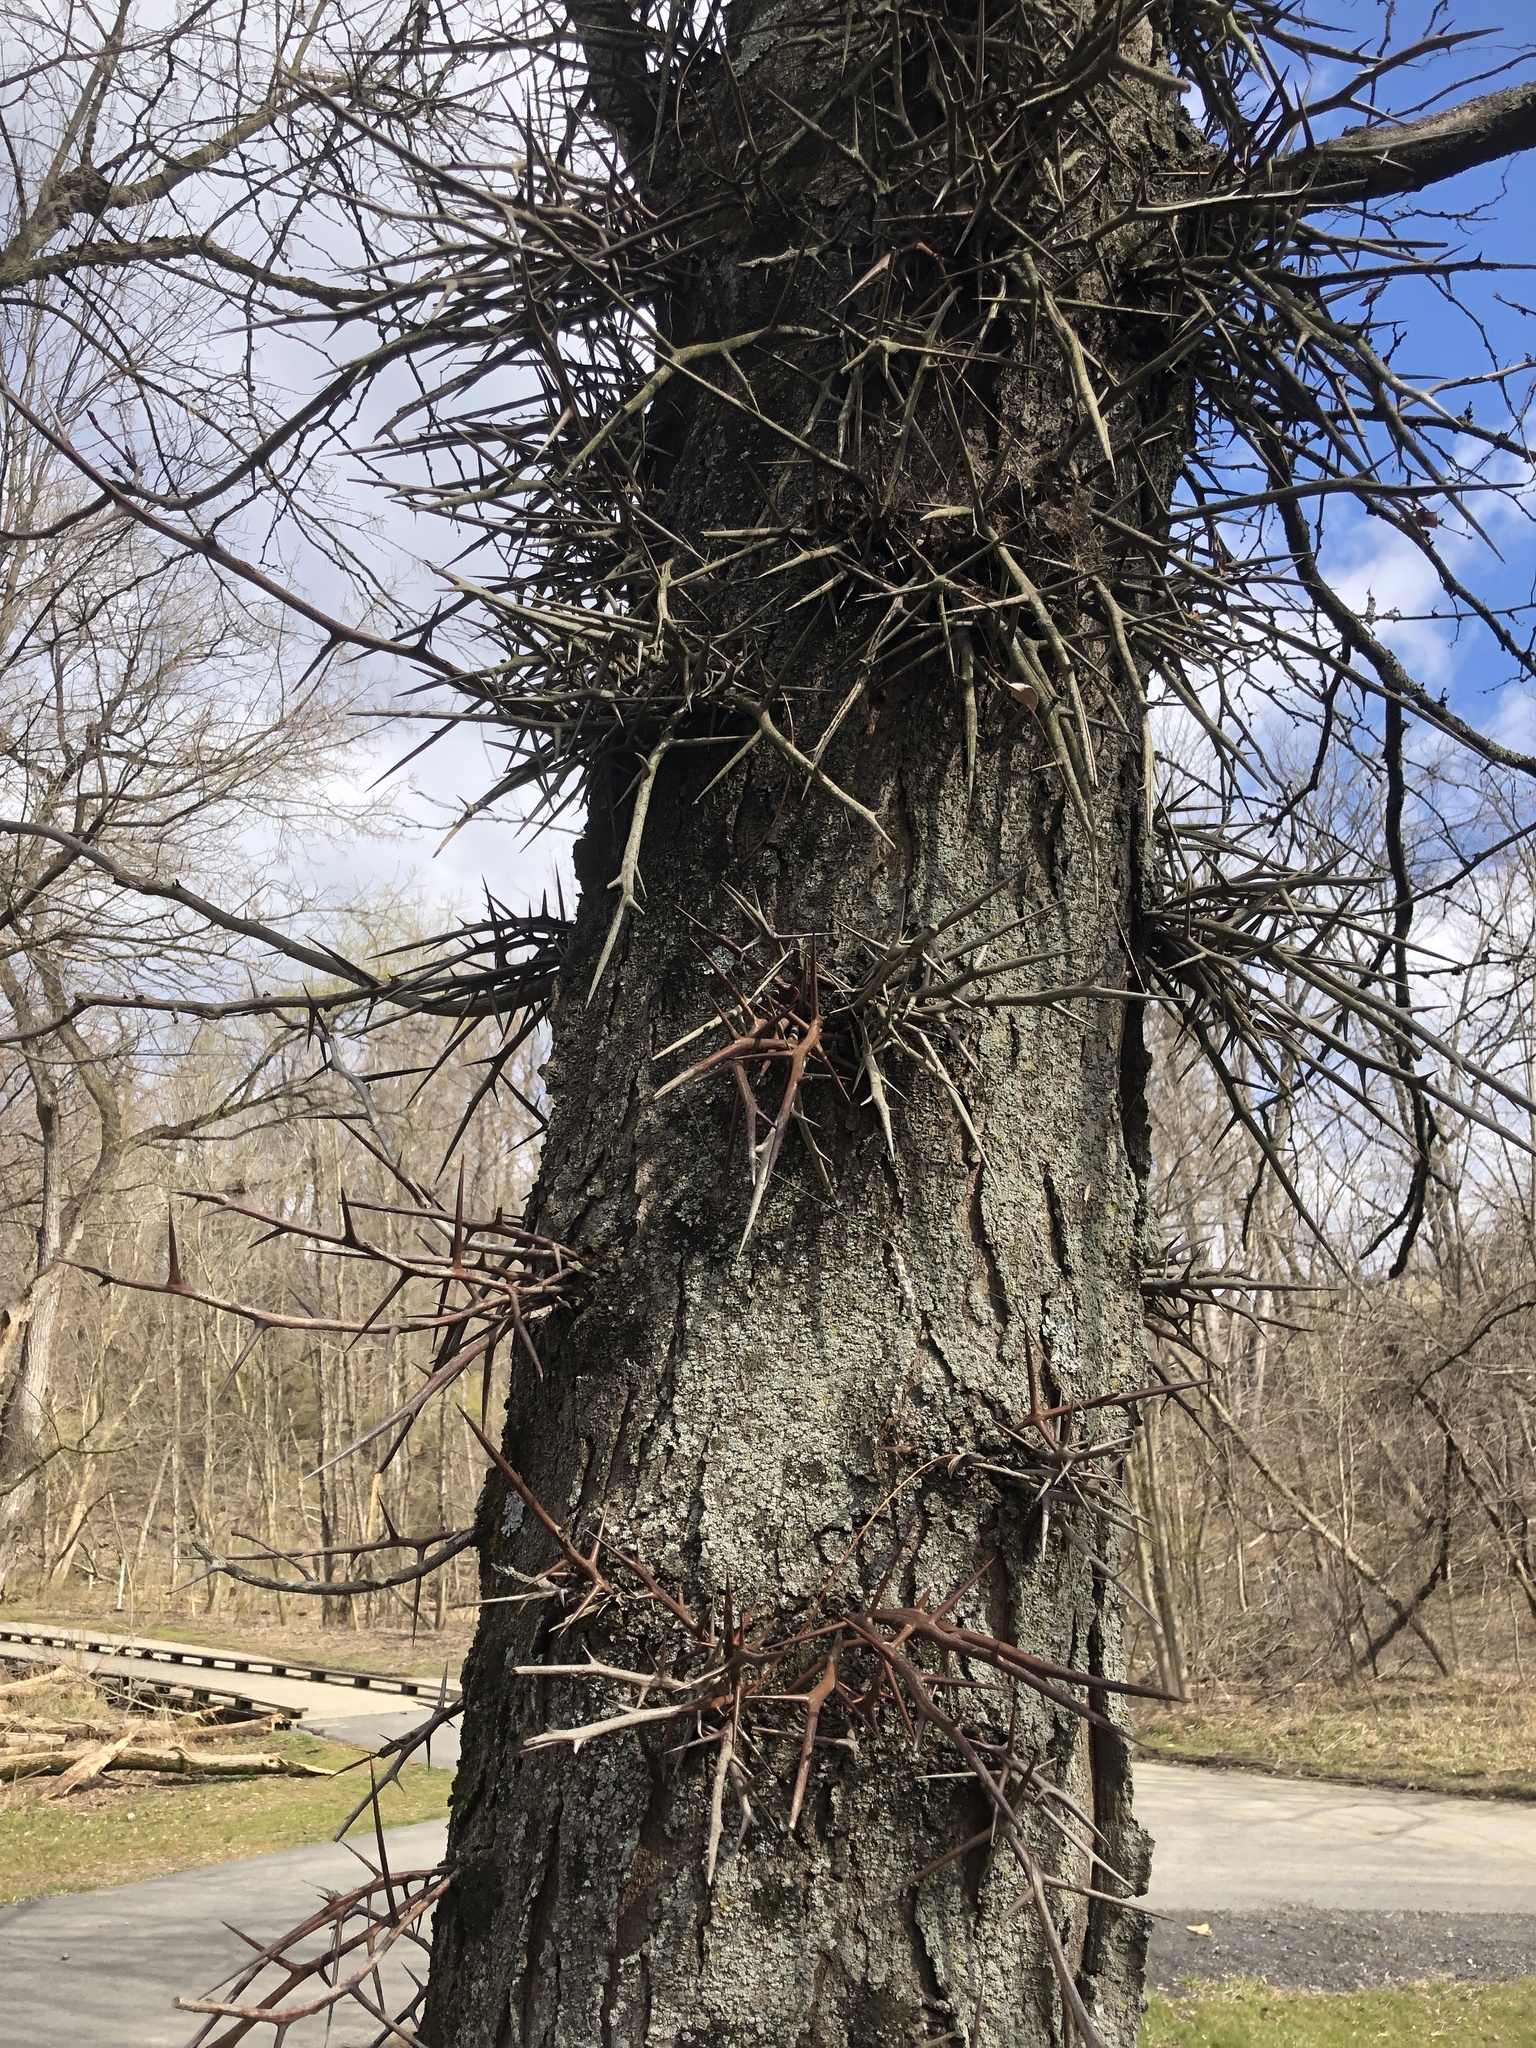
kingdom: Plantae
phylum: Tracheophyta
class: Magnoliopsida
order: Fabales
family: Fabaceae
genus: Gleditsia
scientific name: Gleditsia triacanthos
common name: Common honeylocust
